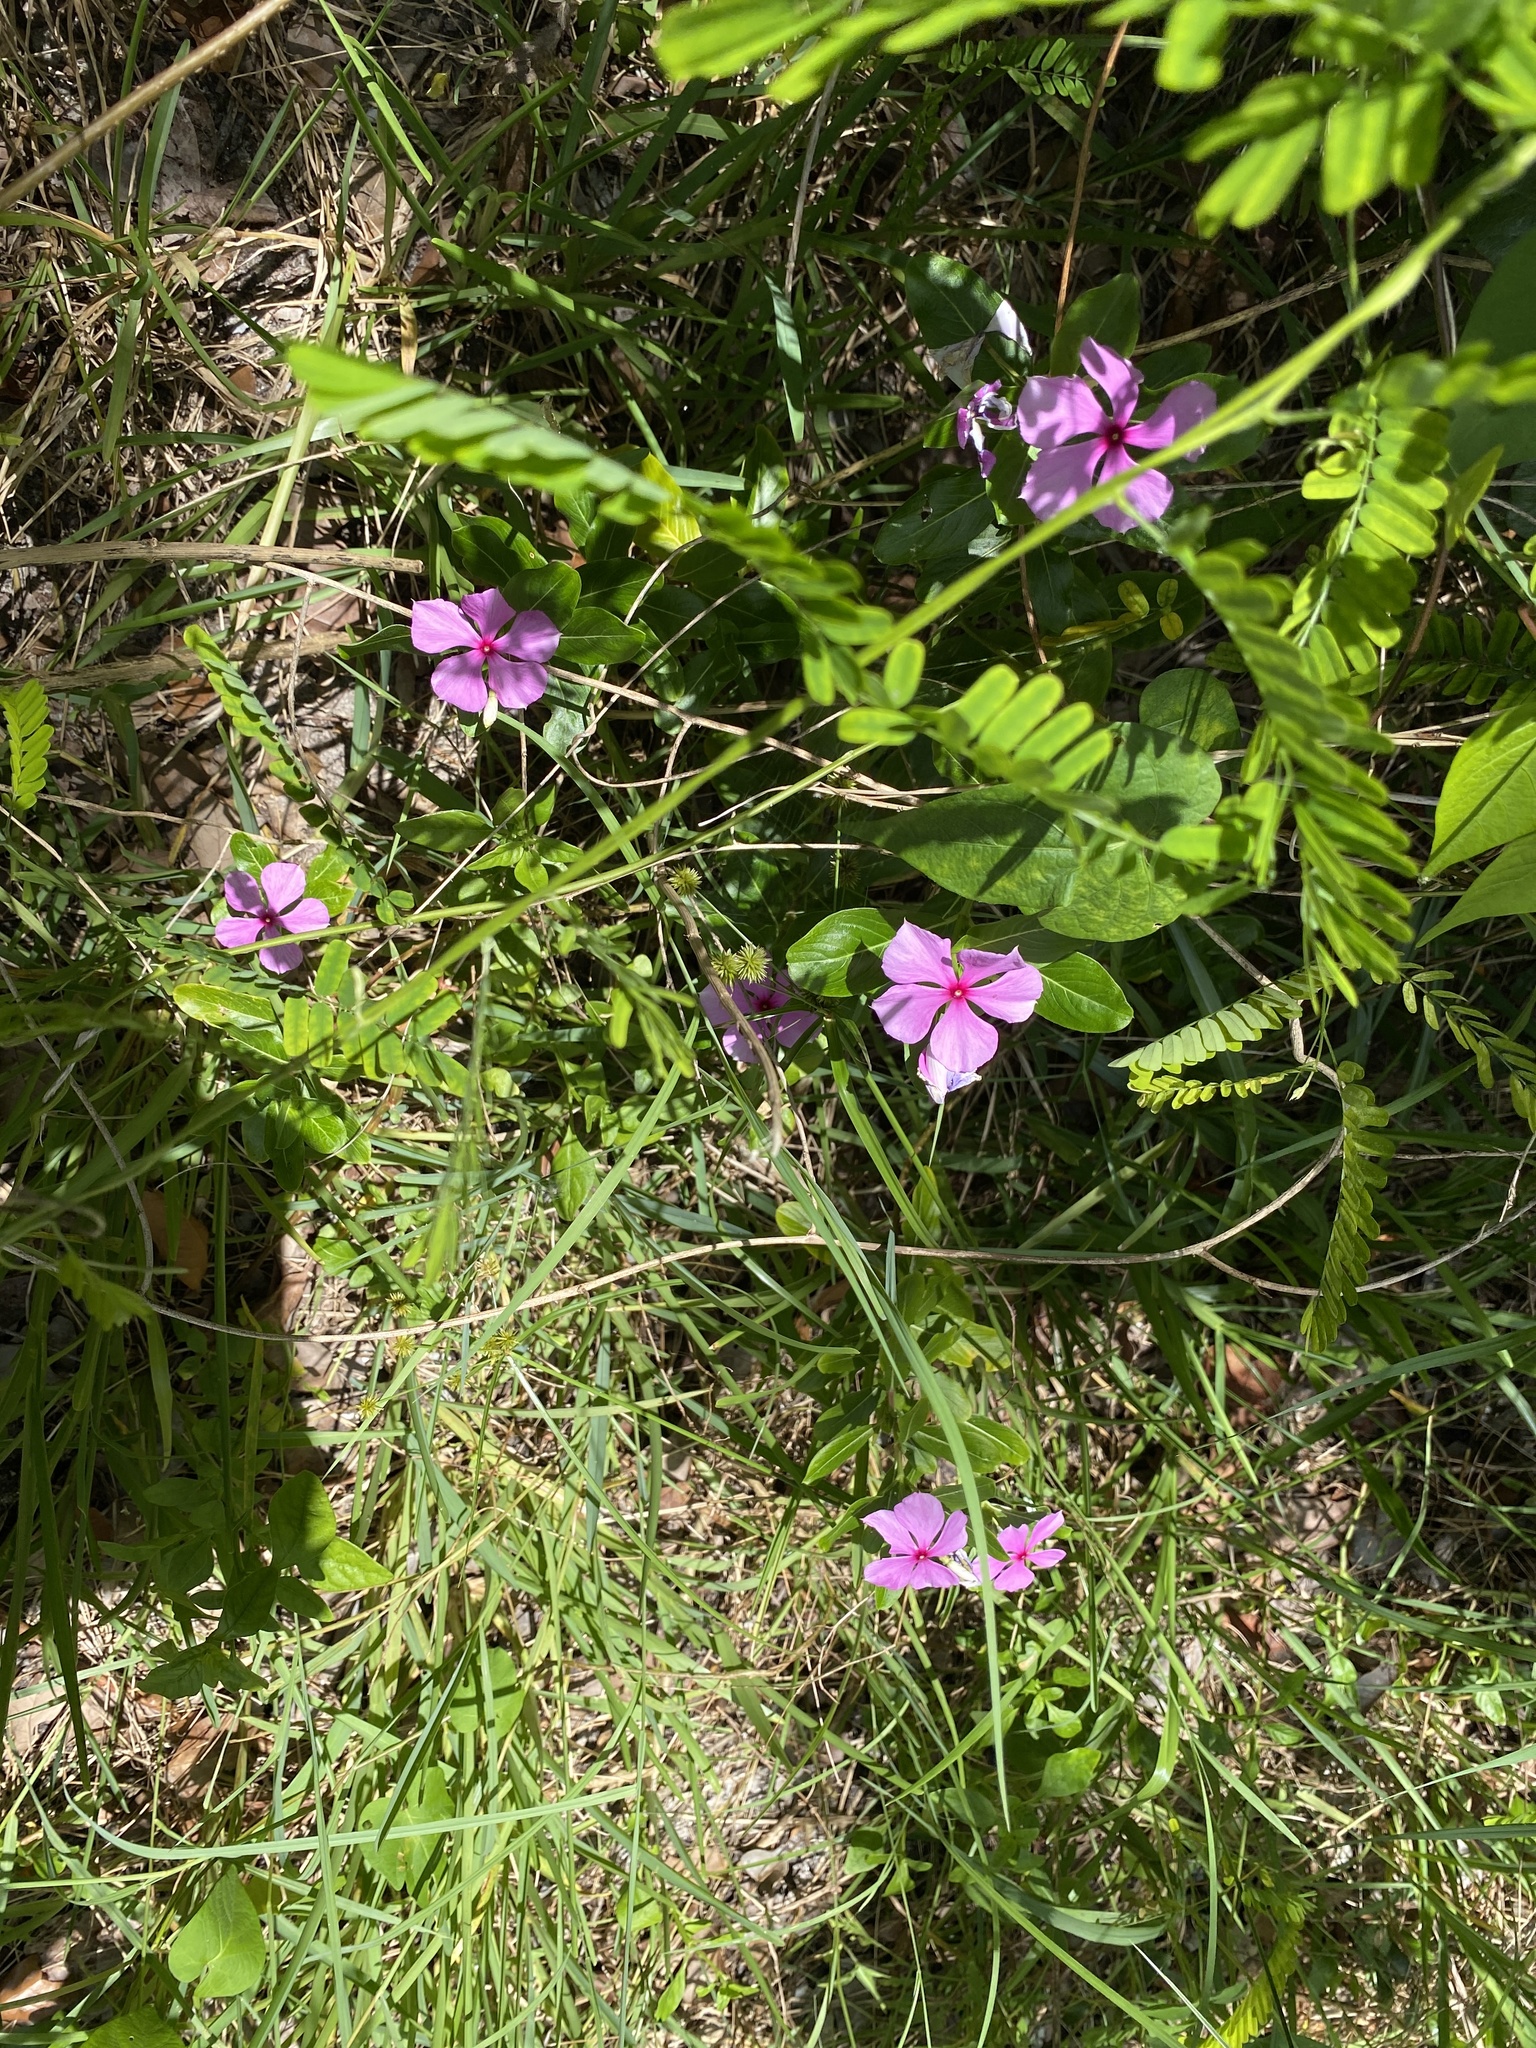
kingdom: Plantae
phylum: Tracheophyta
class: Magnoliopsida
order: Gentianales
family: Apocynaceae
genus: Catharanthus
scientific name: Catharanthus roseus
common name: Madagascar periwinkle
